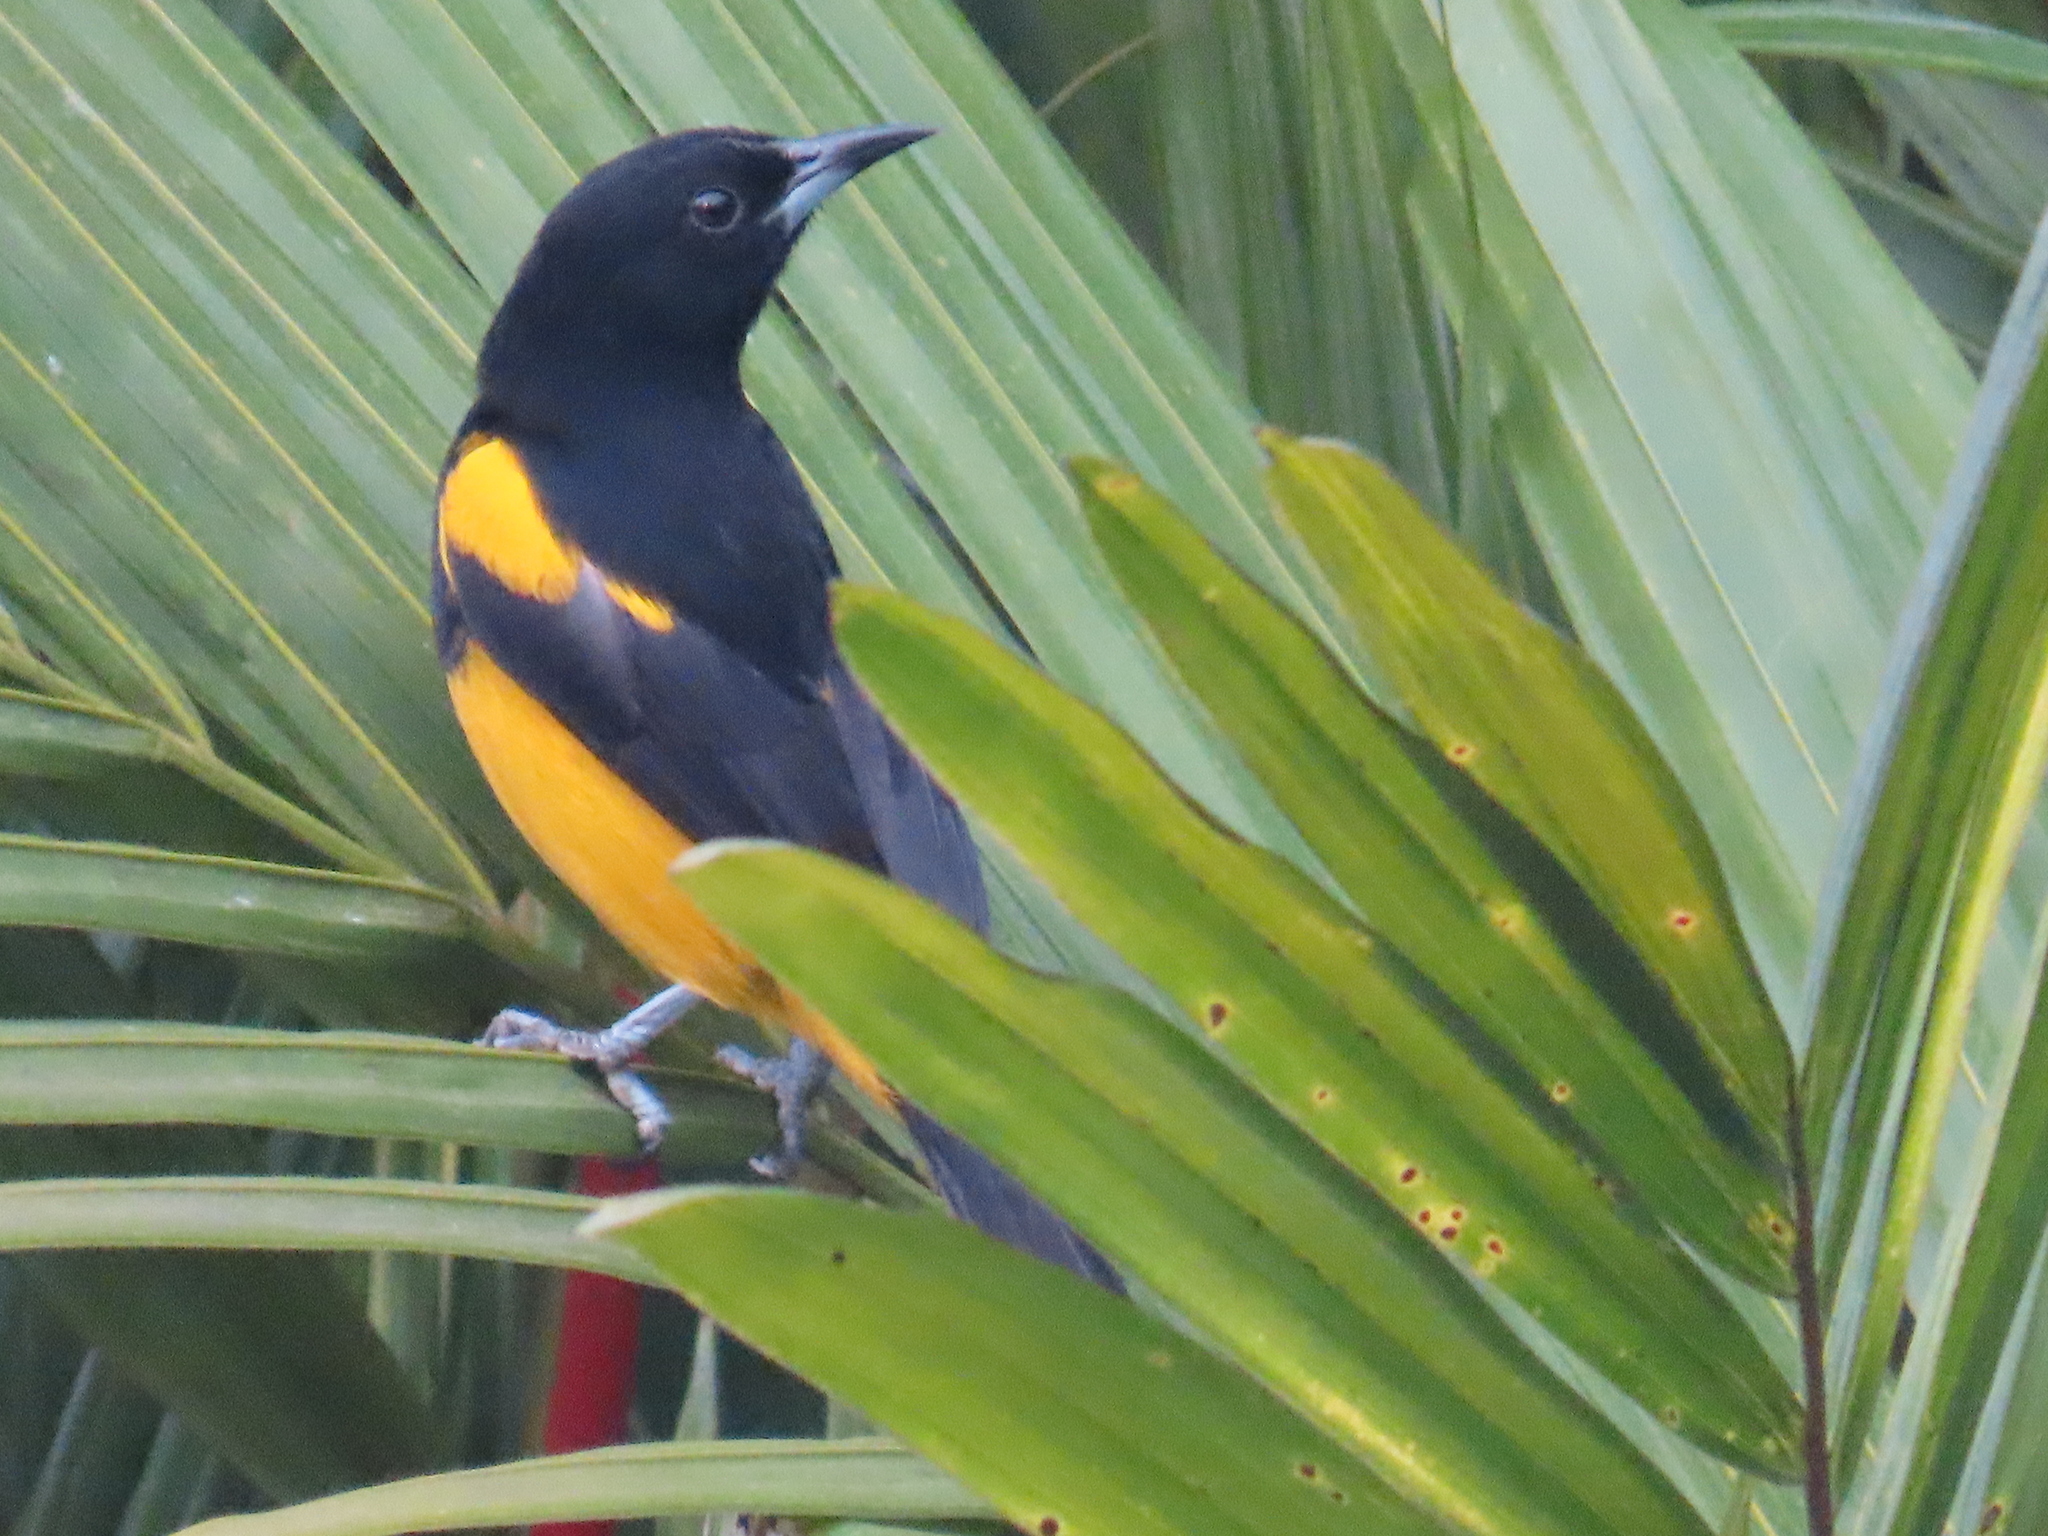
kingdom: Animalia
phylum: Chordata
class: Aves
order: Passeriformes
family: Icteridae
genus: Icterus
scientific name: Icterus prosthemelas
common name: Black-cowled oriole
